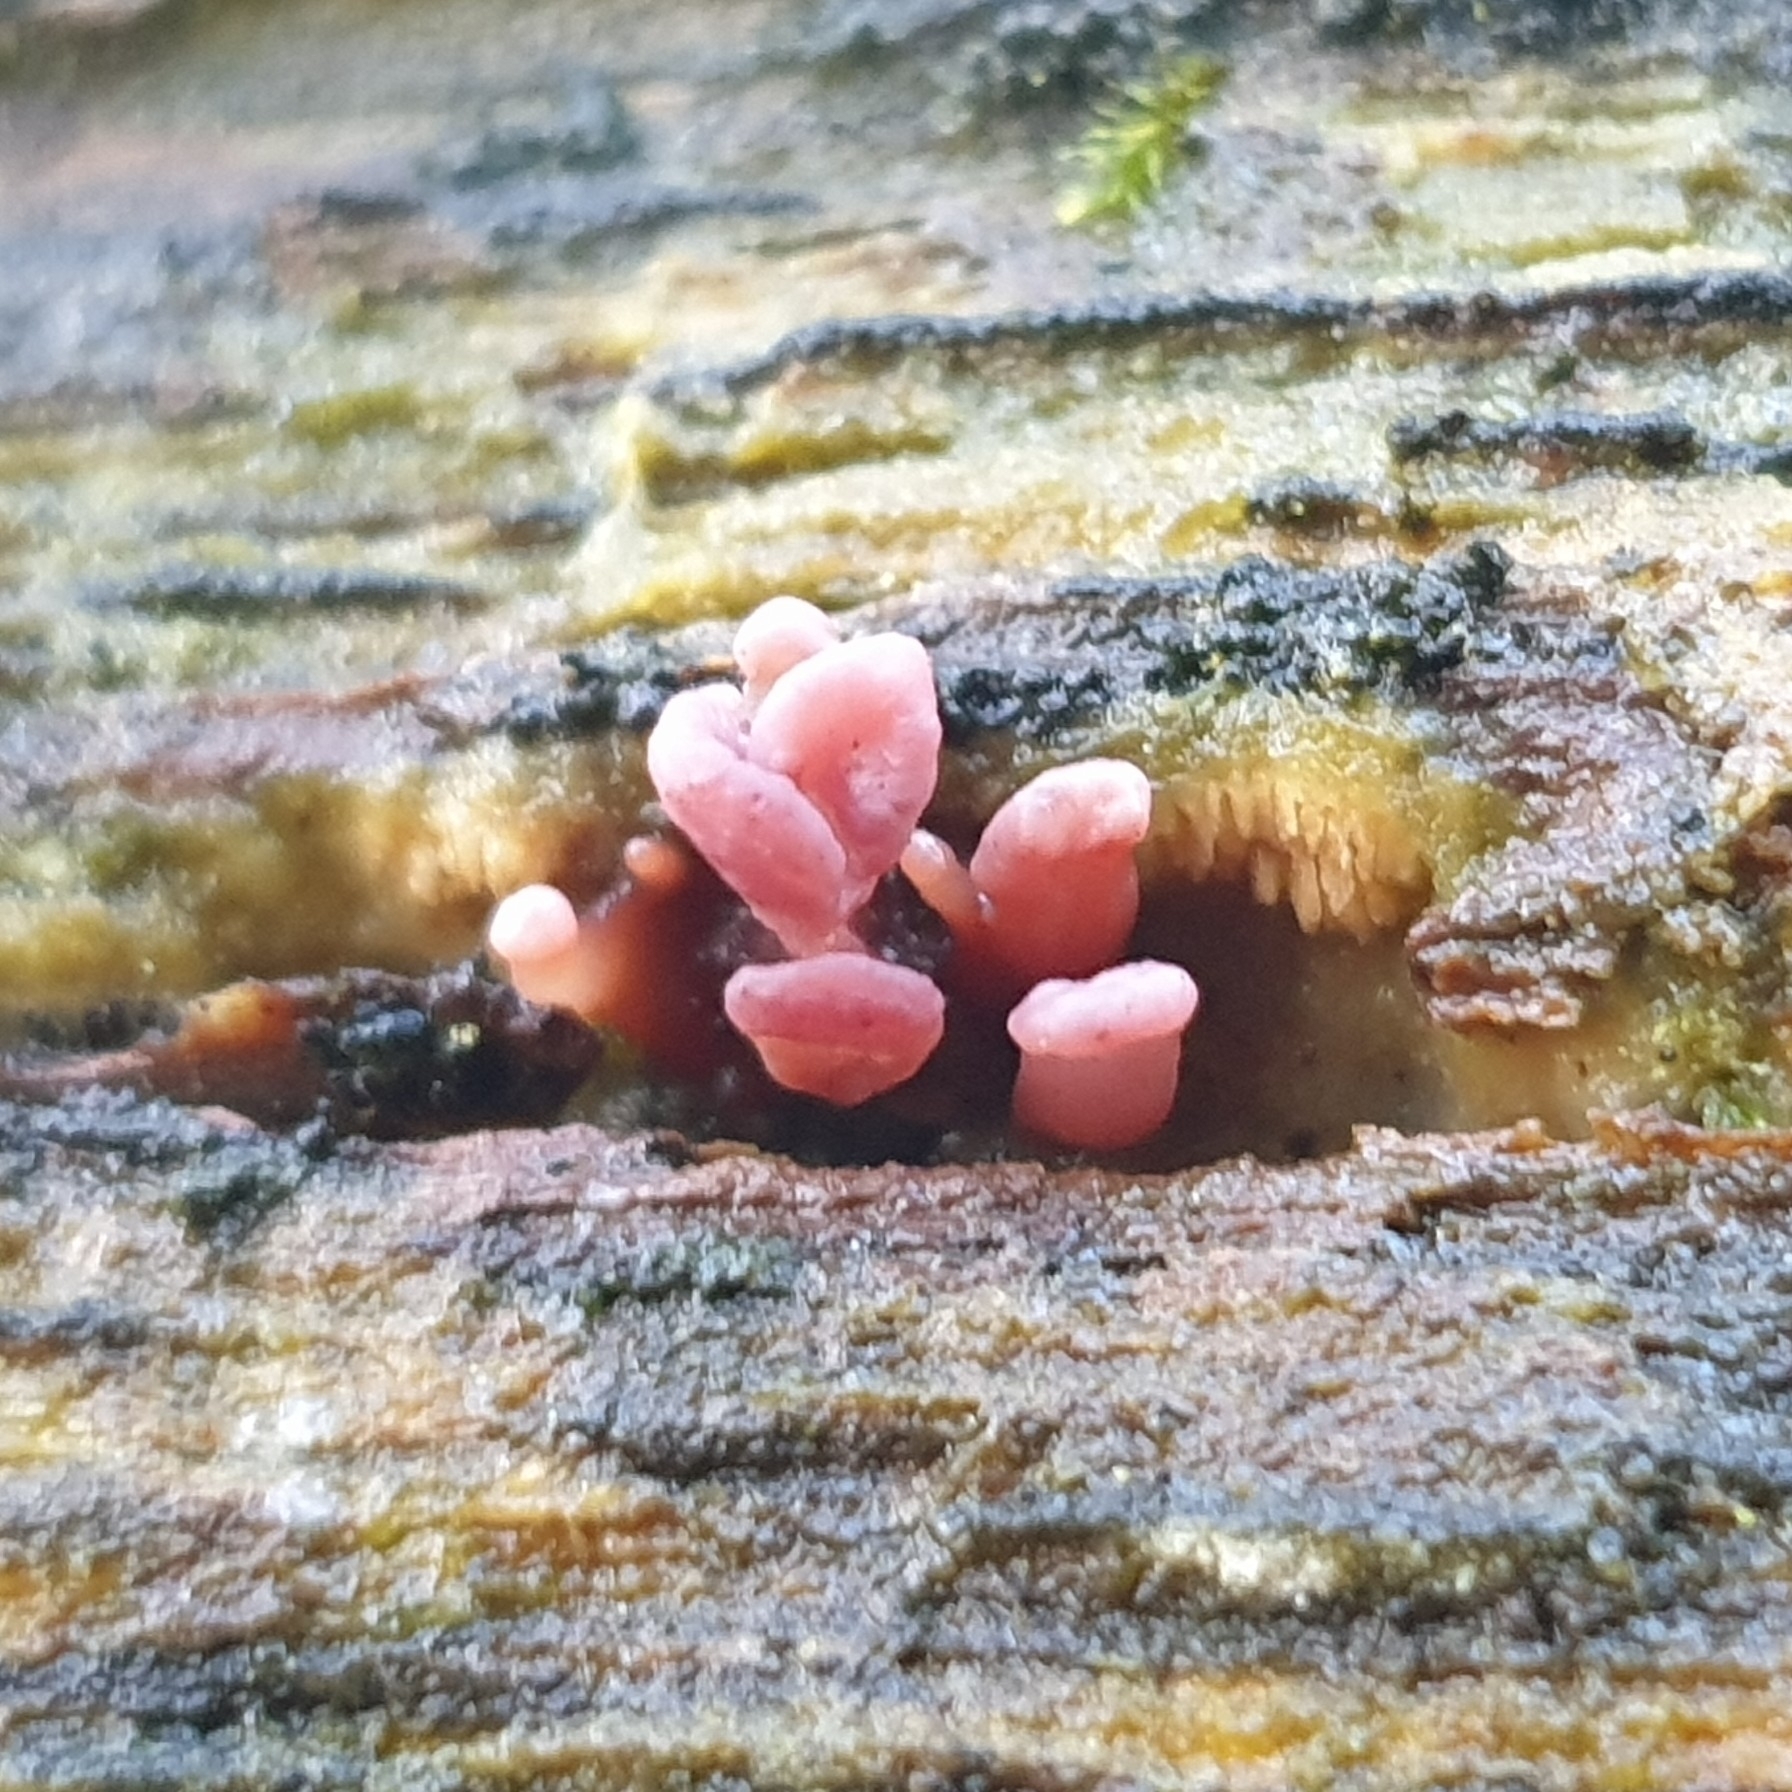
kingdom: Fungi
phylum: Ascomycota
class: Leotiomycetes
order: Helotiales
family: Gelatinodiscaceae
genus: Ascocoryne
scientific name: Ascocoryne sarcoides
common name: Purple jellydisc
